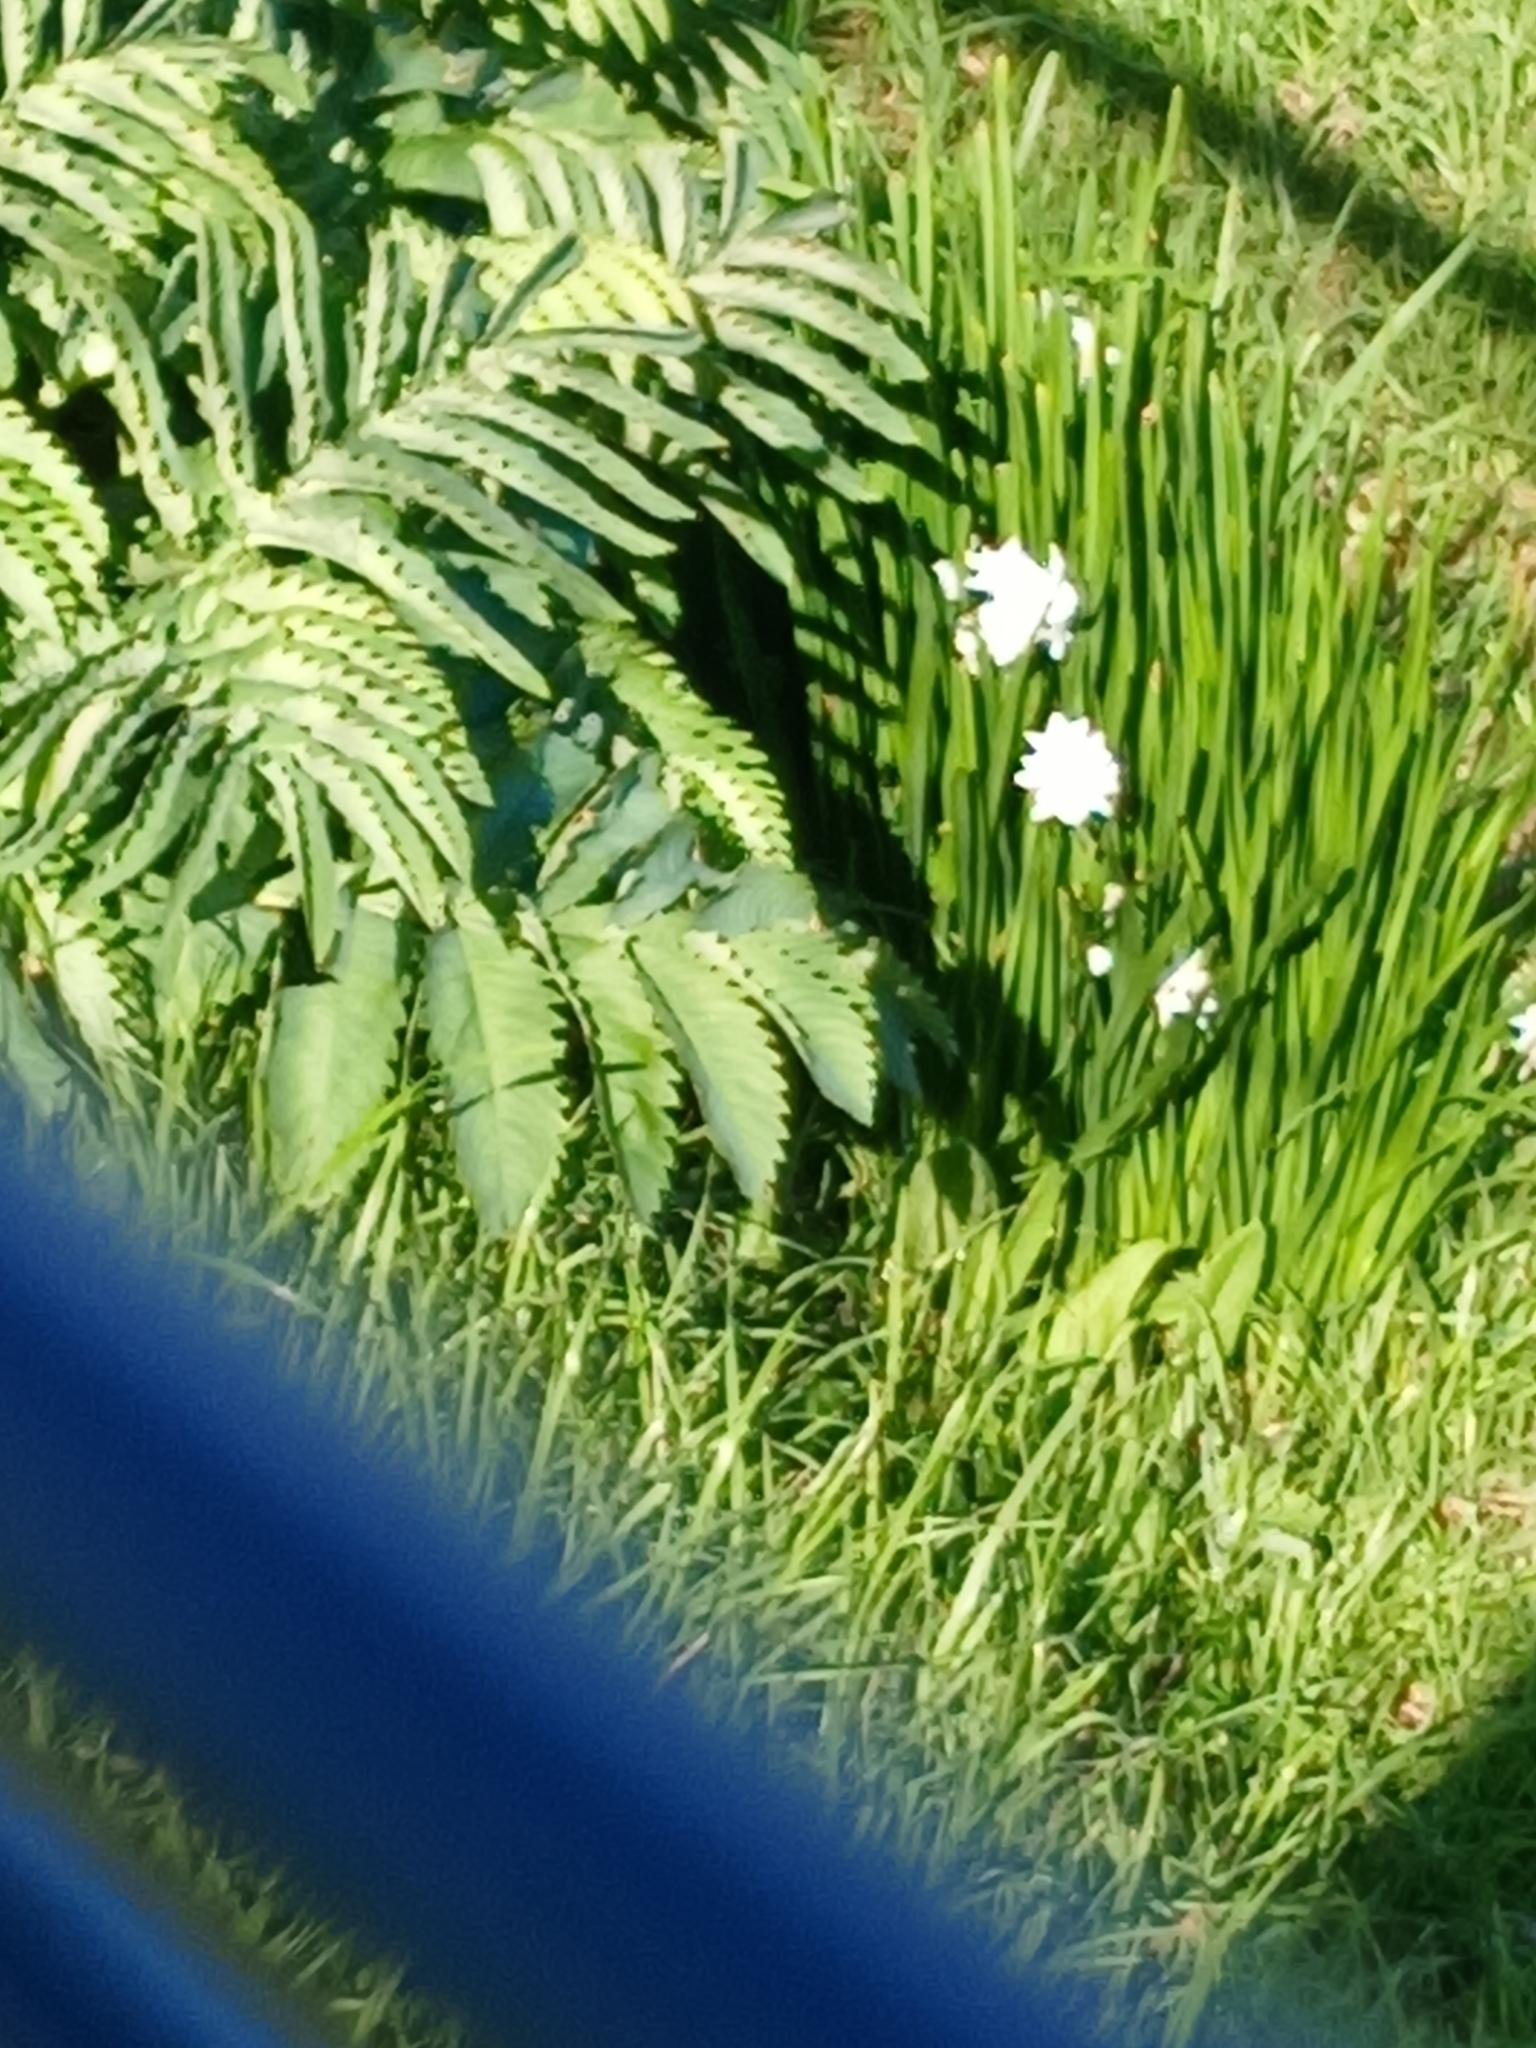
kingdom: Plantae
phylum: Tracheophyta
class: Magnoliopsida
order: Geraniales
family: Melianthaceae
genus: Melianthus
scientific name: Melianthus major
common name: Honey-flower
